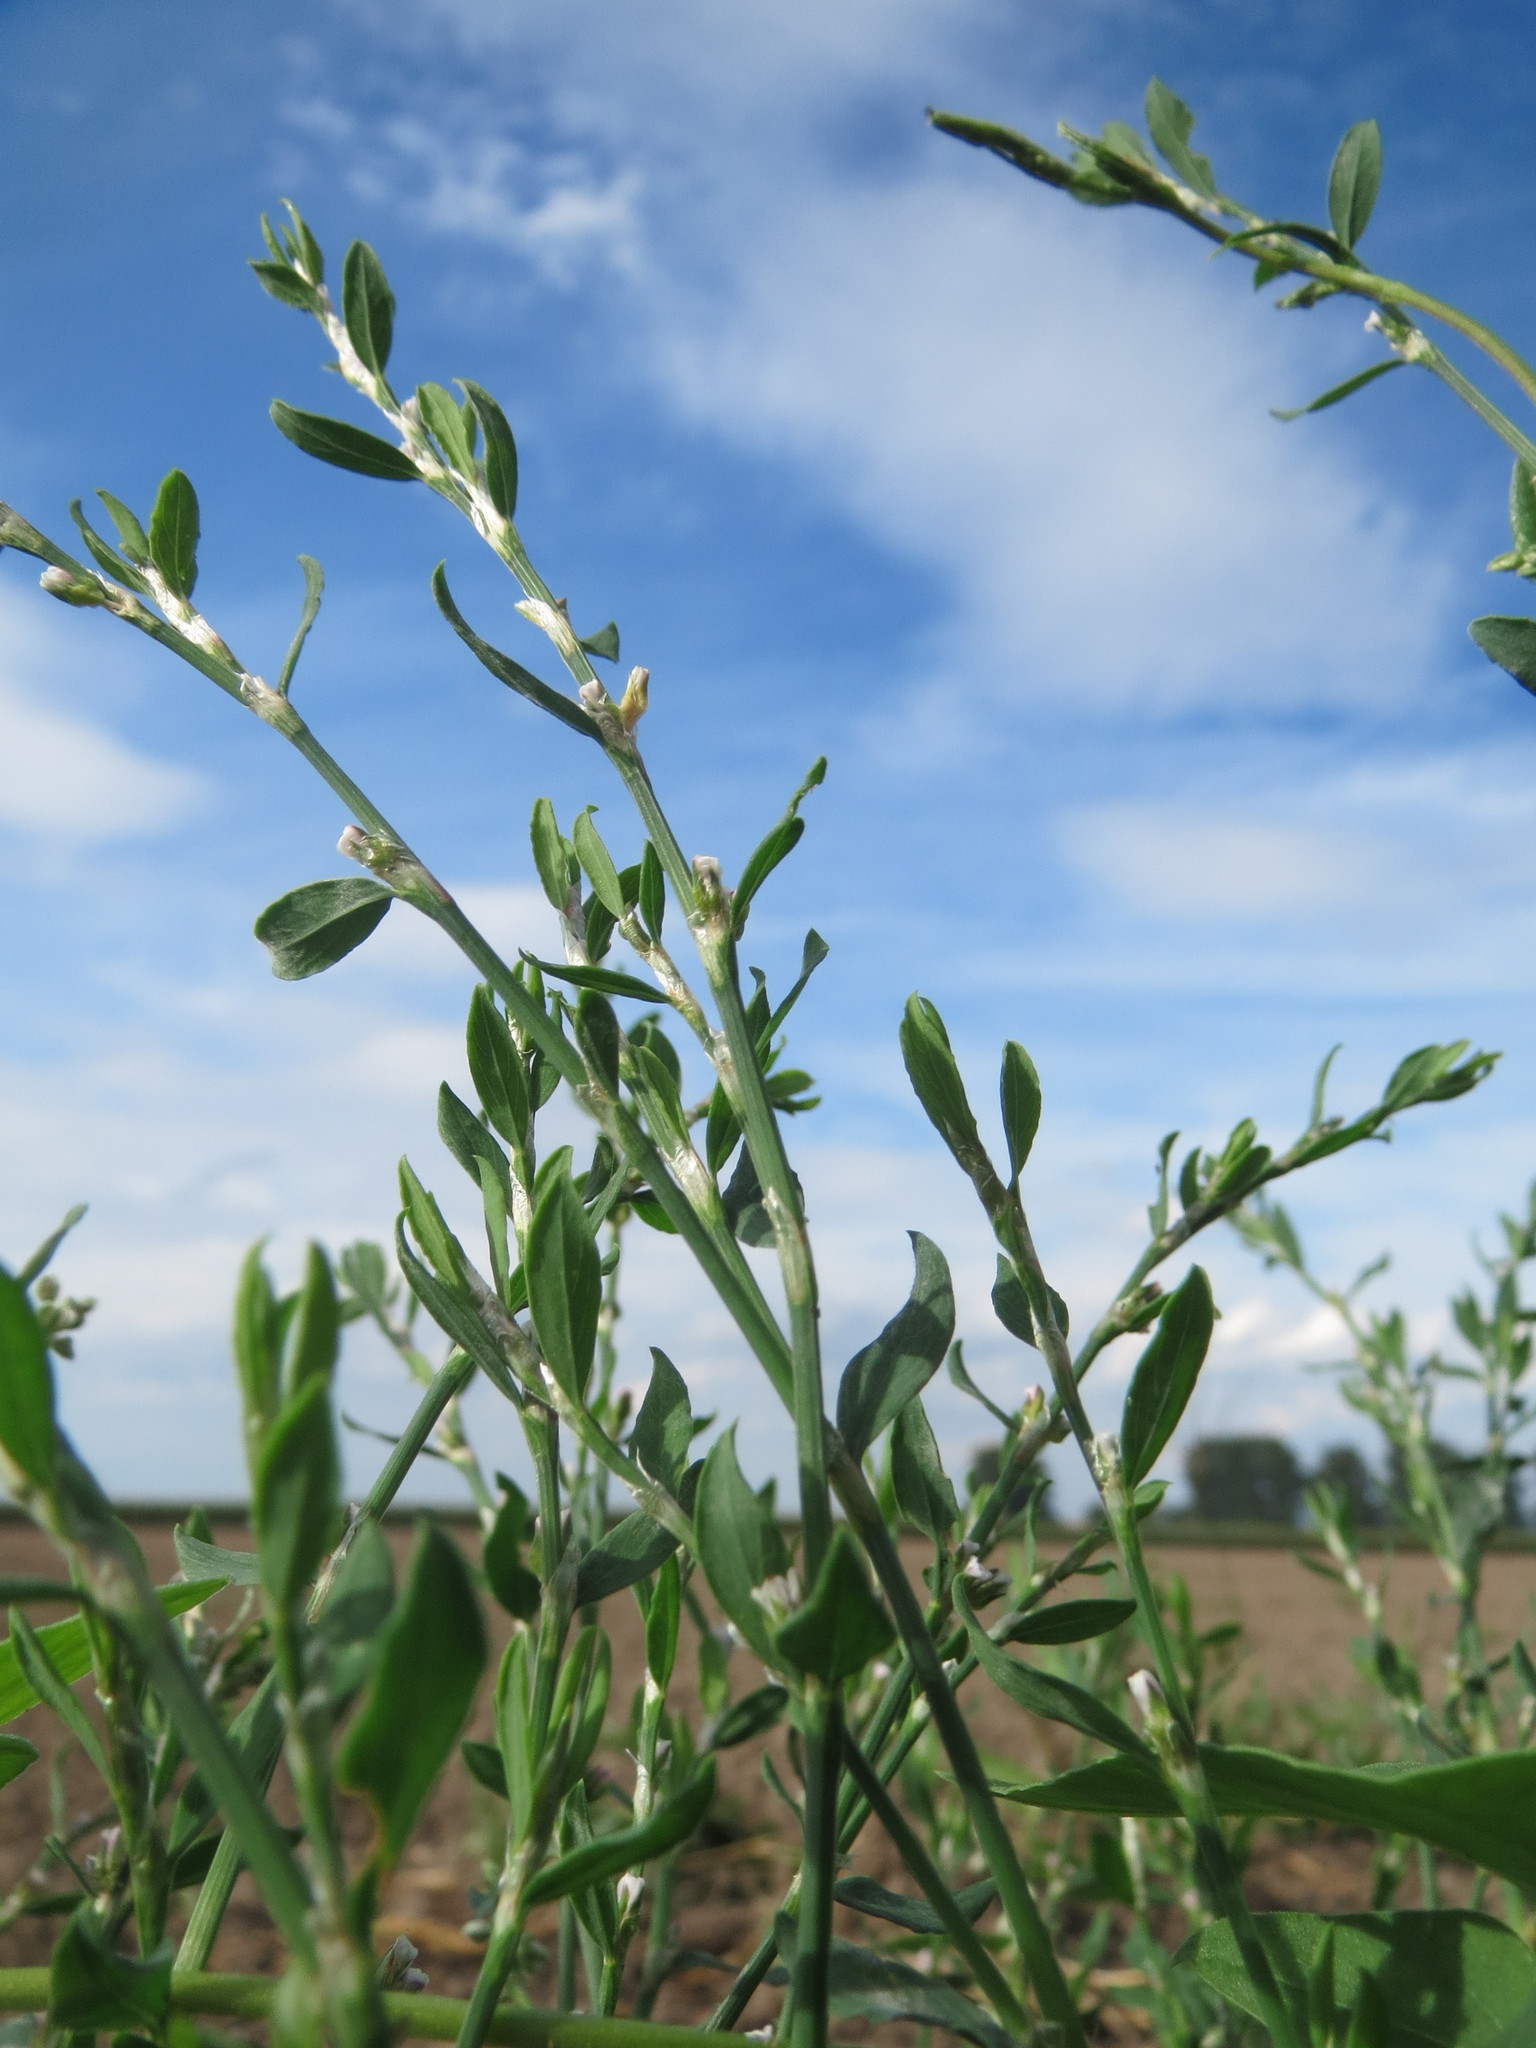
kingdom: Plantae
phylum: Tracheophyta
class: Magnoliopsida
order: Caryophyllales
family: Polygonaceae
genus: Polygonum
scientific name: Polygonum aviculare
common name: Prostrate knotweed
